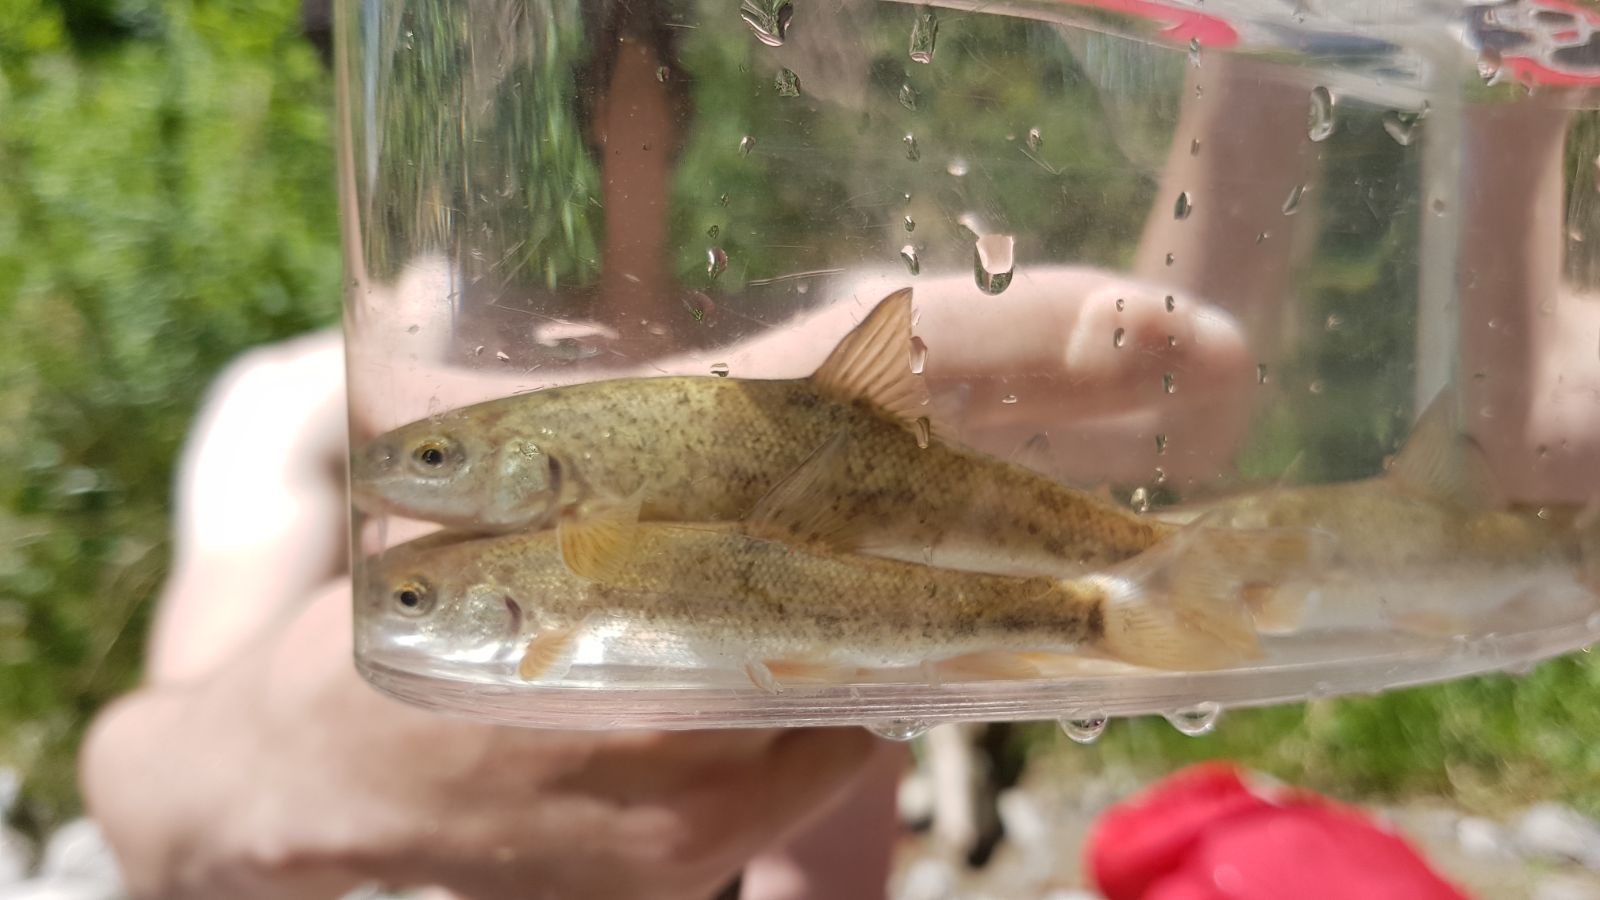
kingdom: Animalia
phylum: Chordata
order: Cypriniformes
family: Cyprinidae
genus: Barbus
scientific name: Barbus barbus
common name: Barbel
